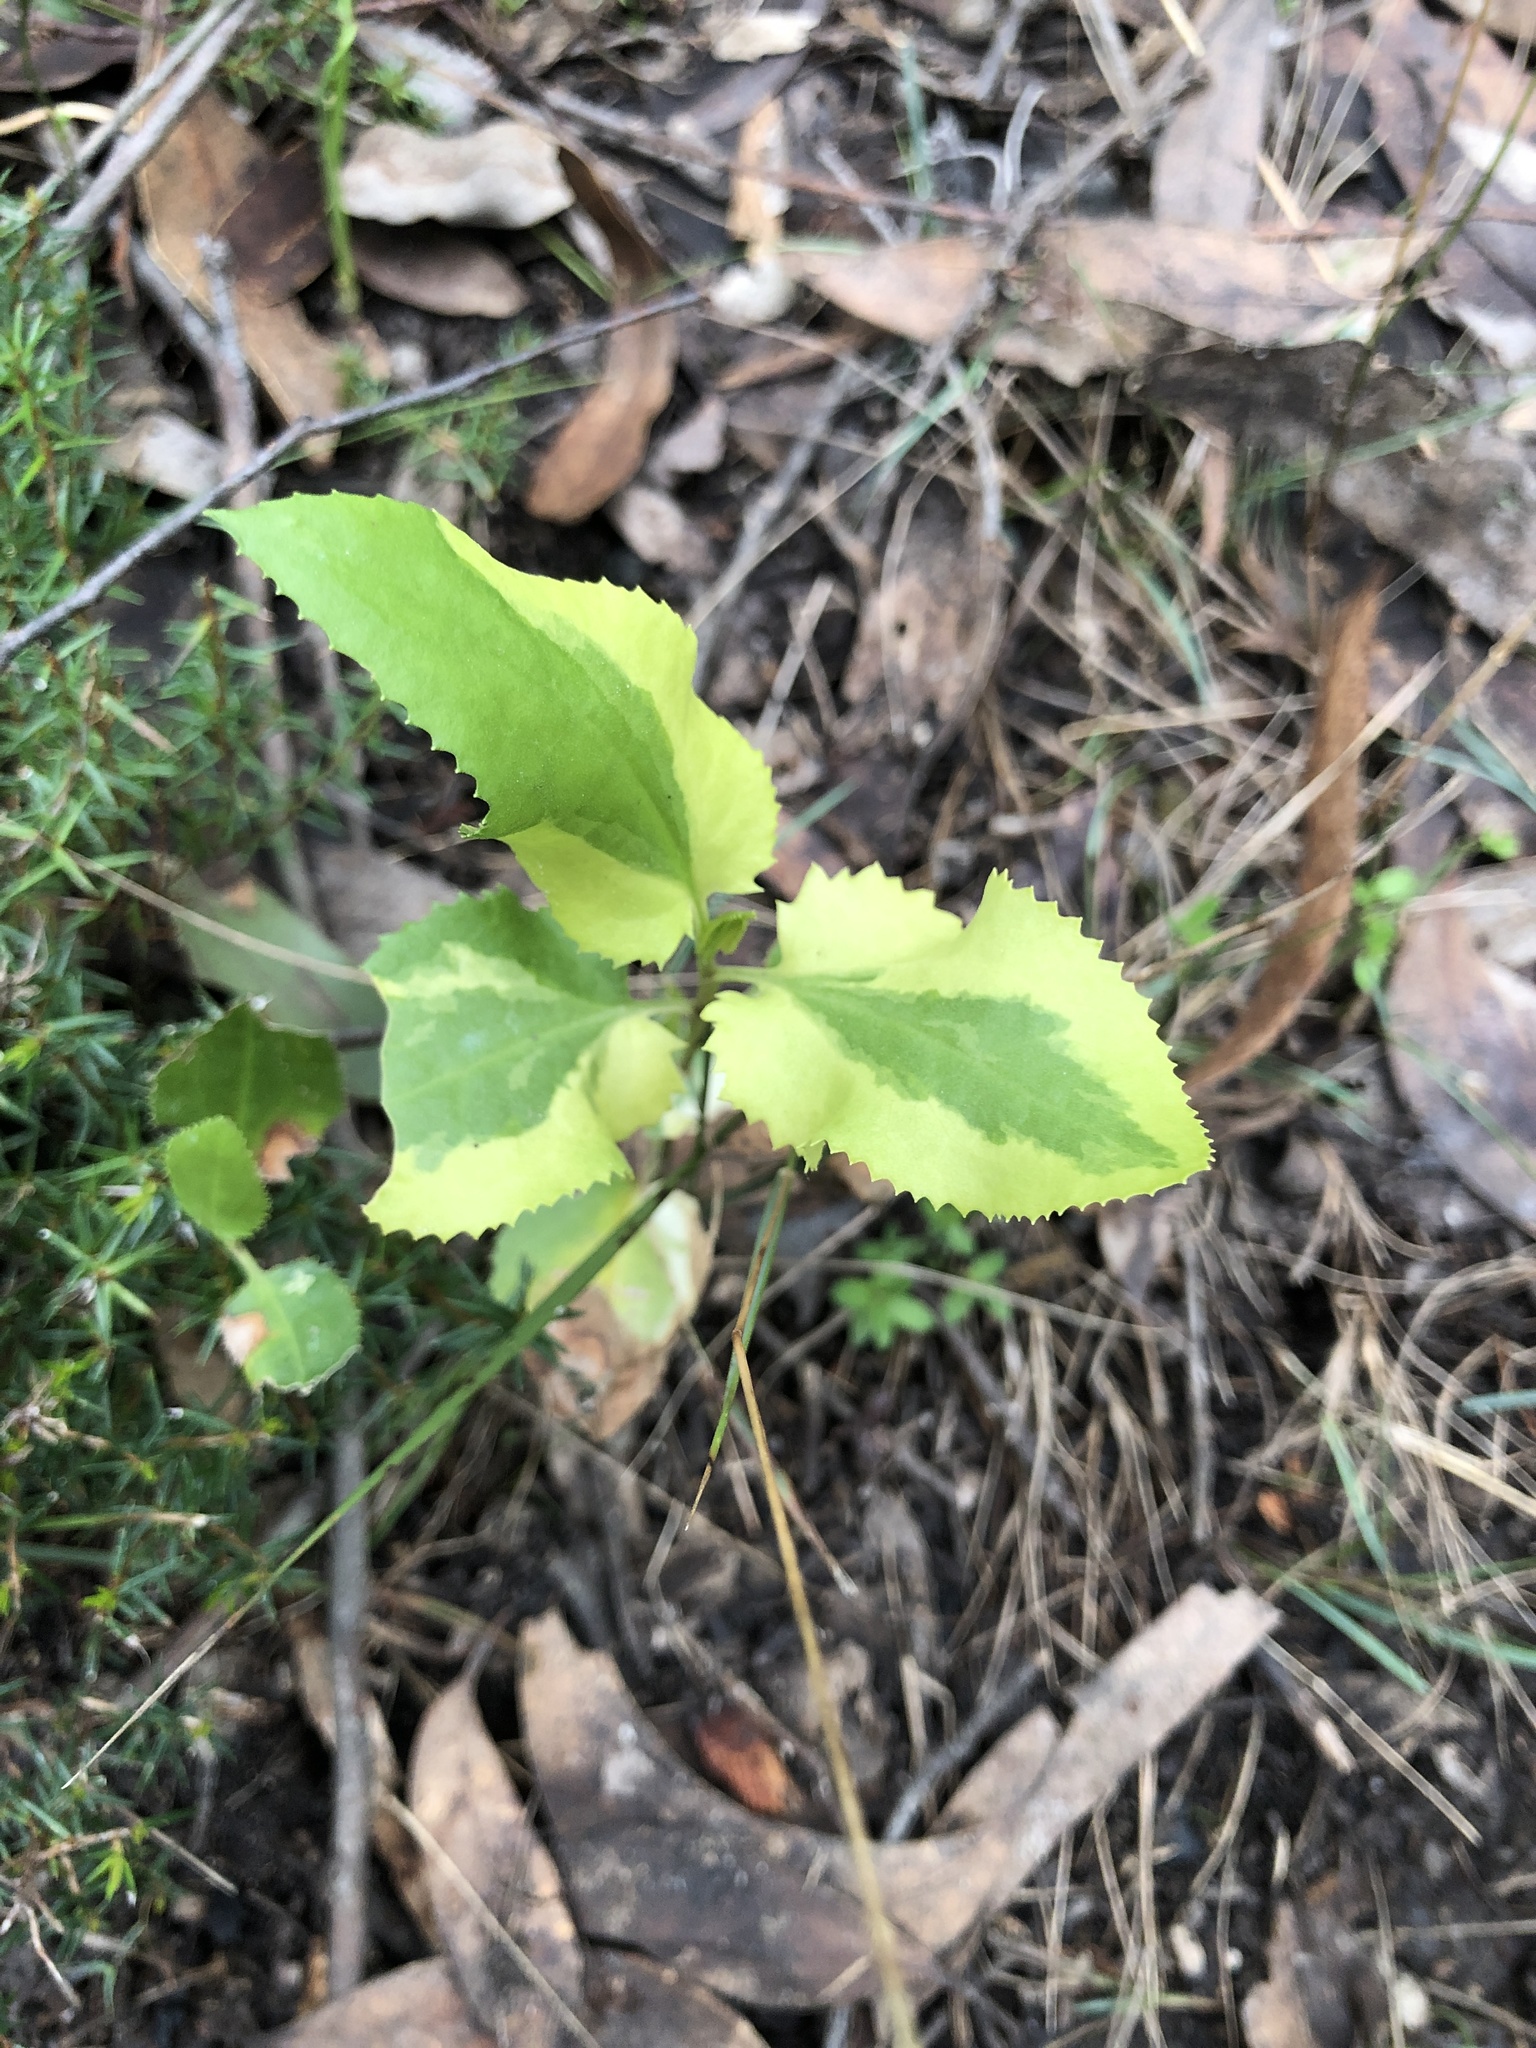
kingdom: Plantae
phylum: Tracheophyta
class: Magnoliopsida
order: Asterales
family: Goodeniaceae
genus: Goodenia
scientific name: Goodenia ovata
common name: Hop goodenia
